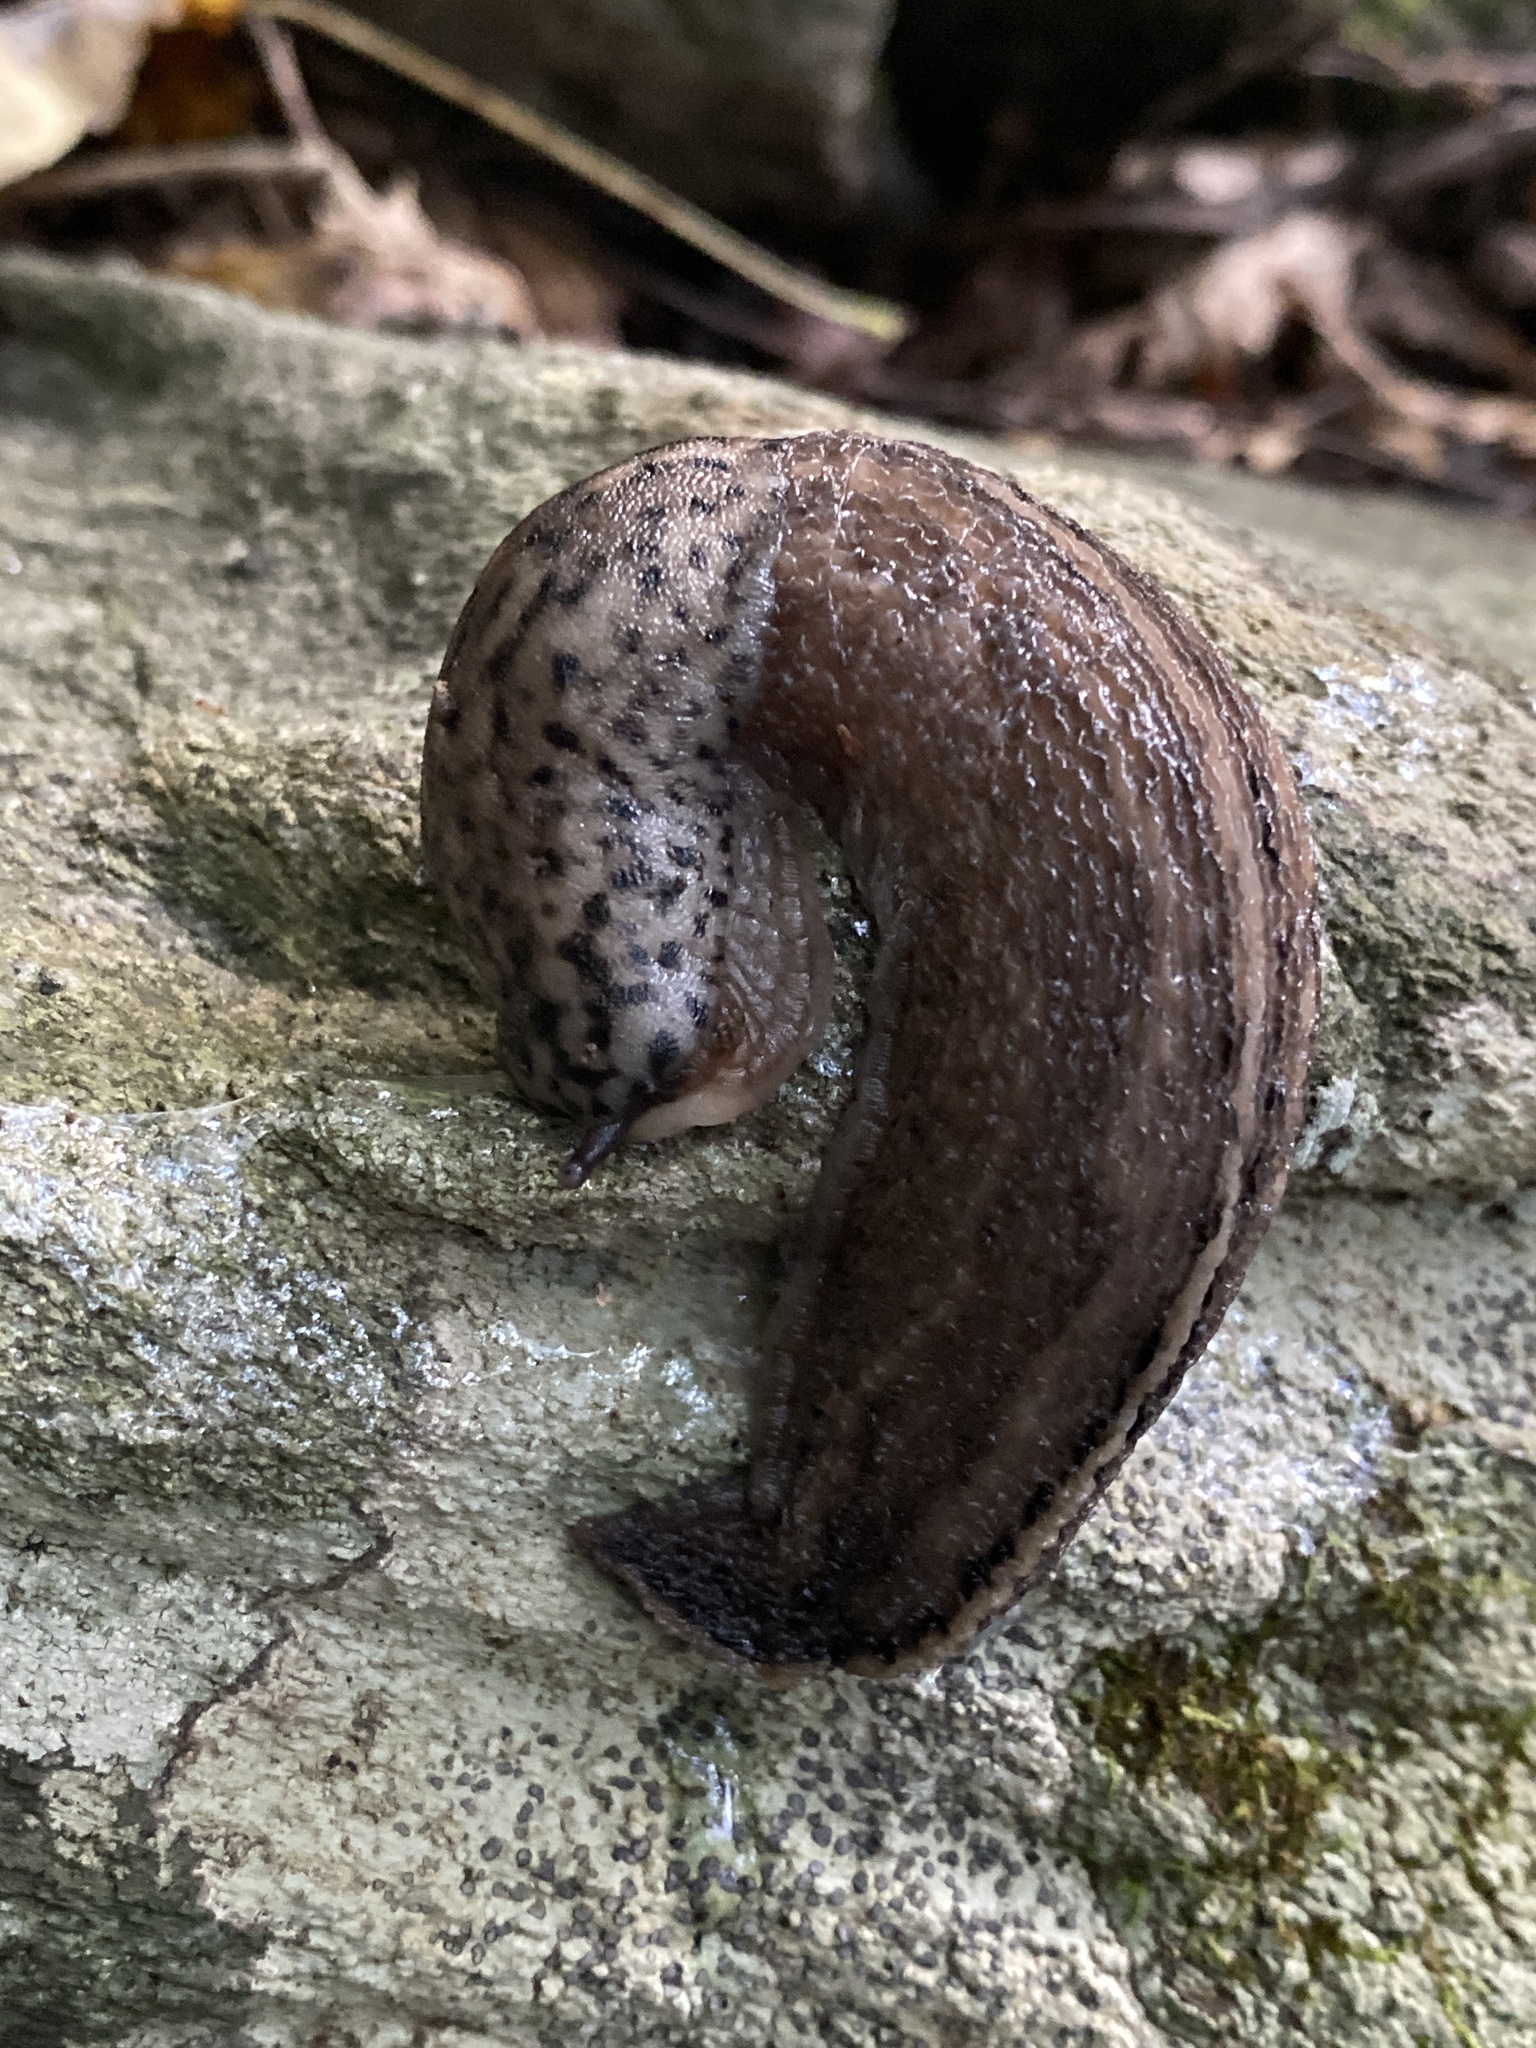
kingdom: Animalia
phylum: Mollusca
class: Gastropoda
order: Stylommatophora
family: Limacidae
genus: Limax
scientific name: Limax maximus
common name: Great grey slug
